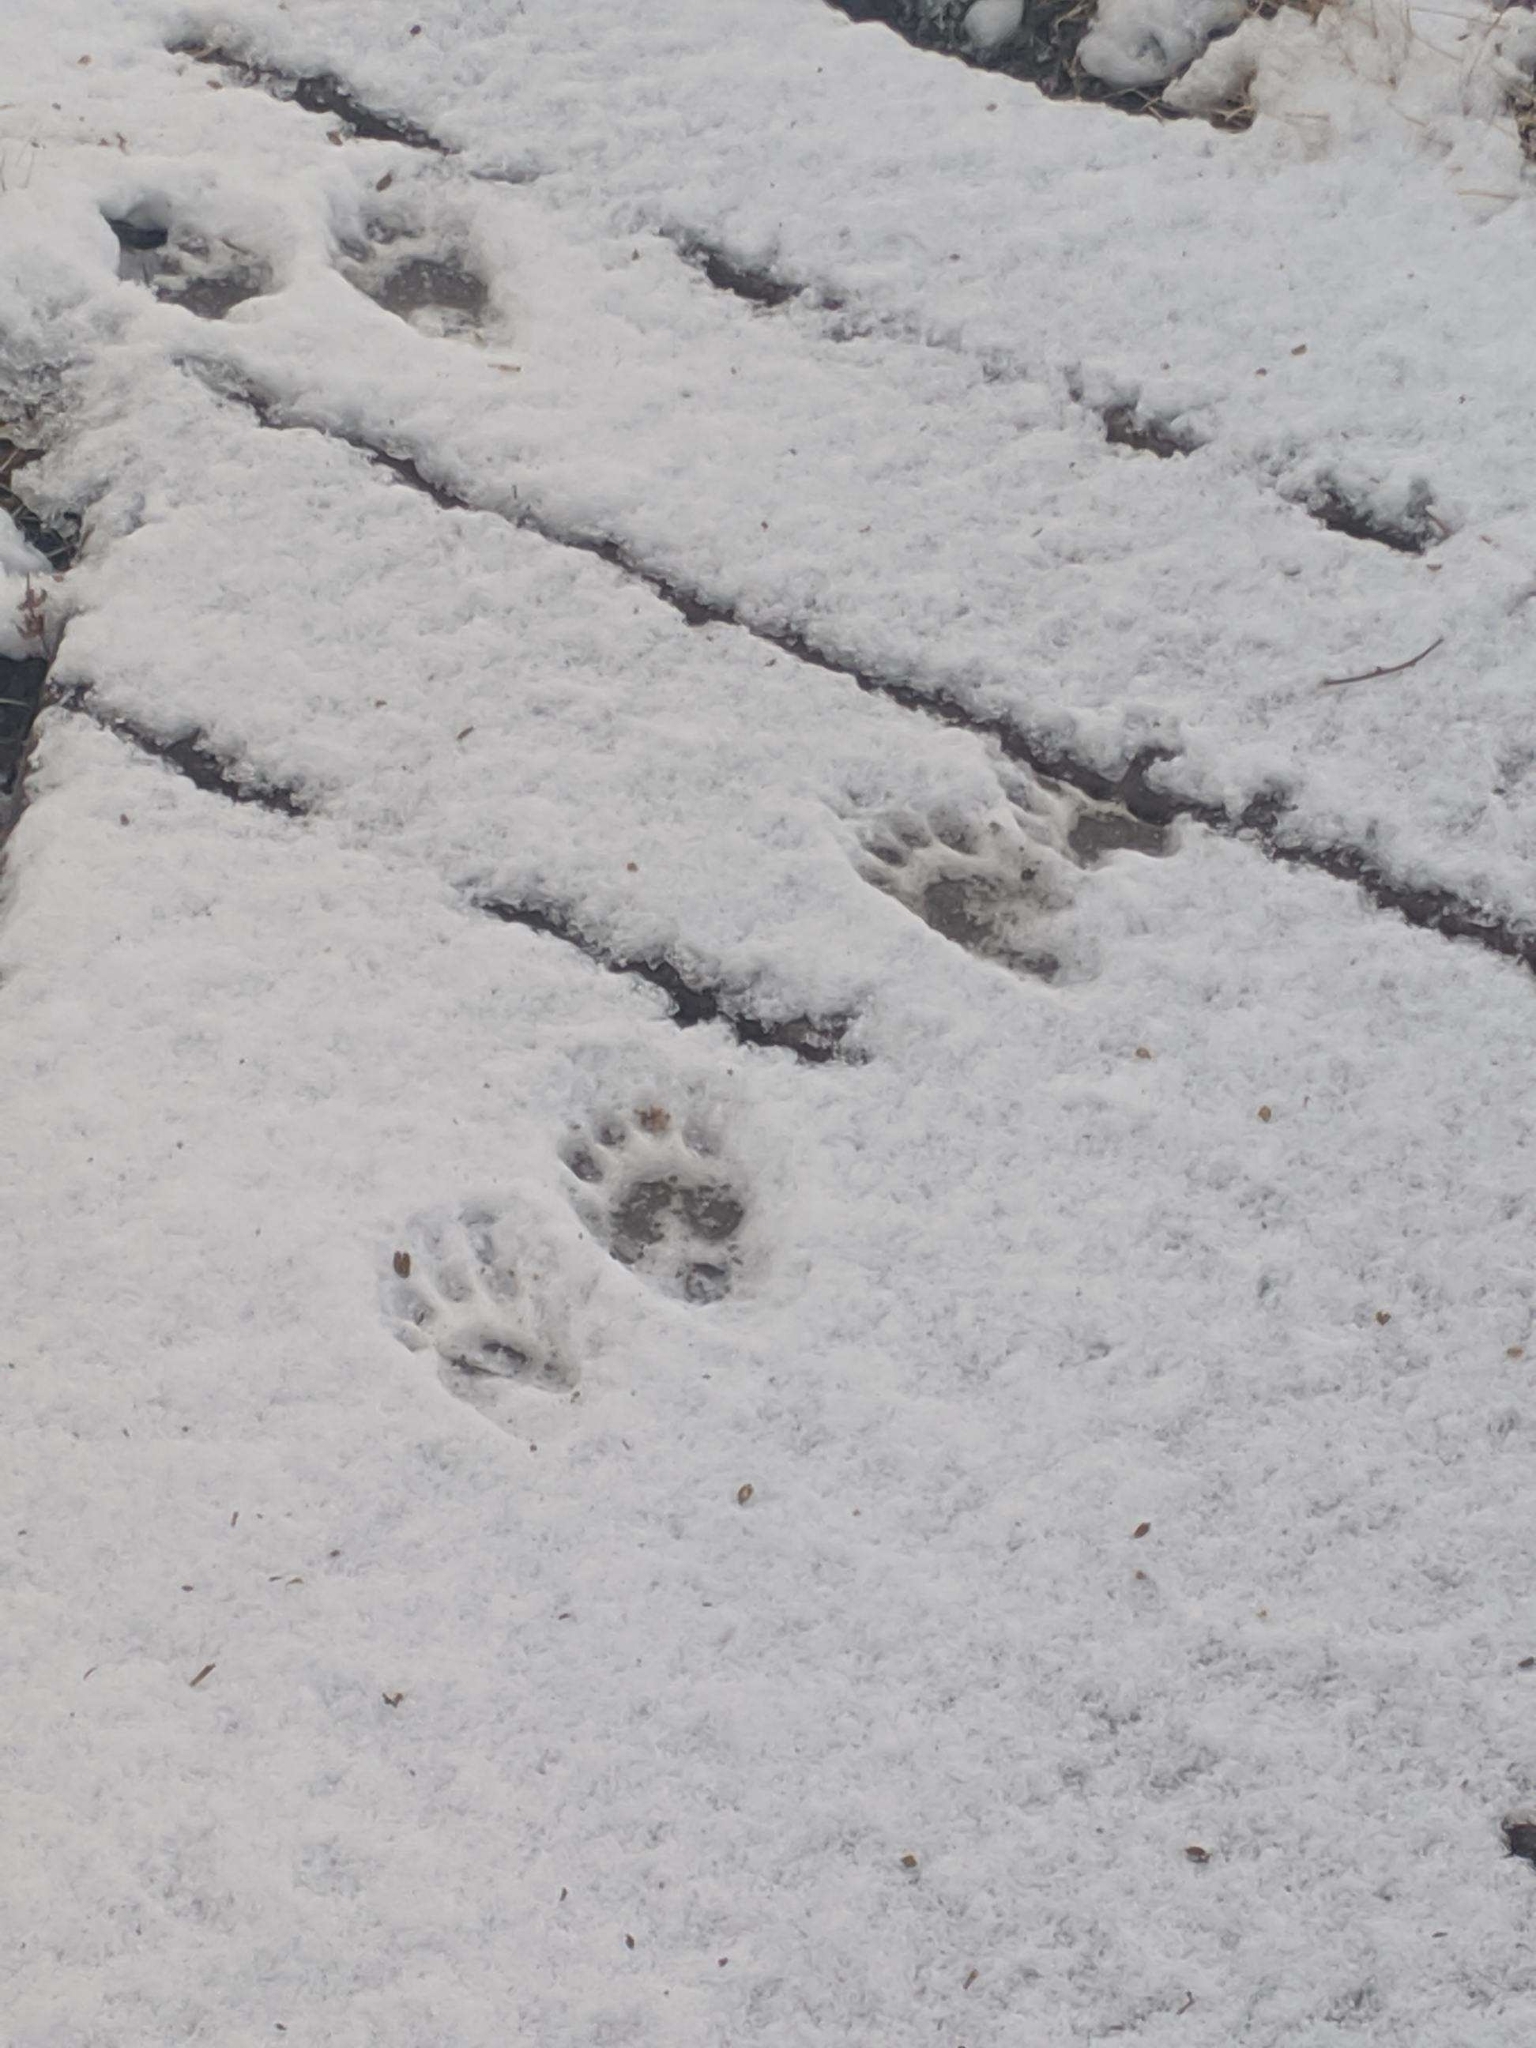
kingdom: Animalia
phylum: Chordata
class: Mammalia
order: Carnivora
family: Mustelidae
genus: Taxidea
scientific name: Taxidea taxus
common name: American badger
